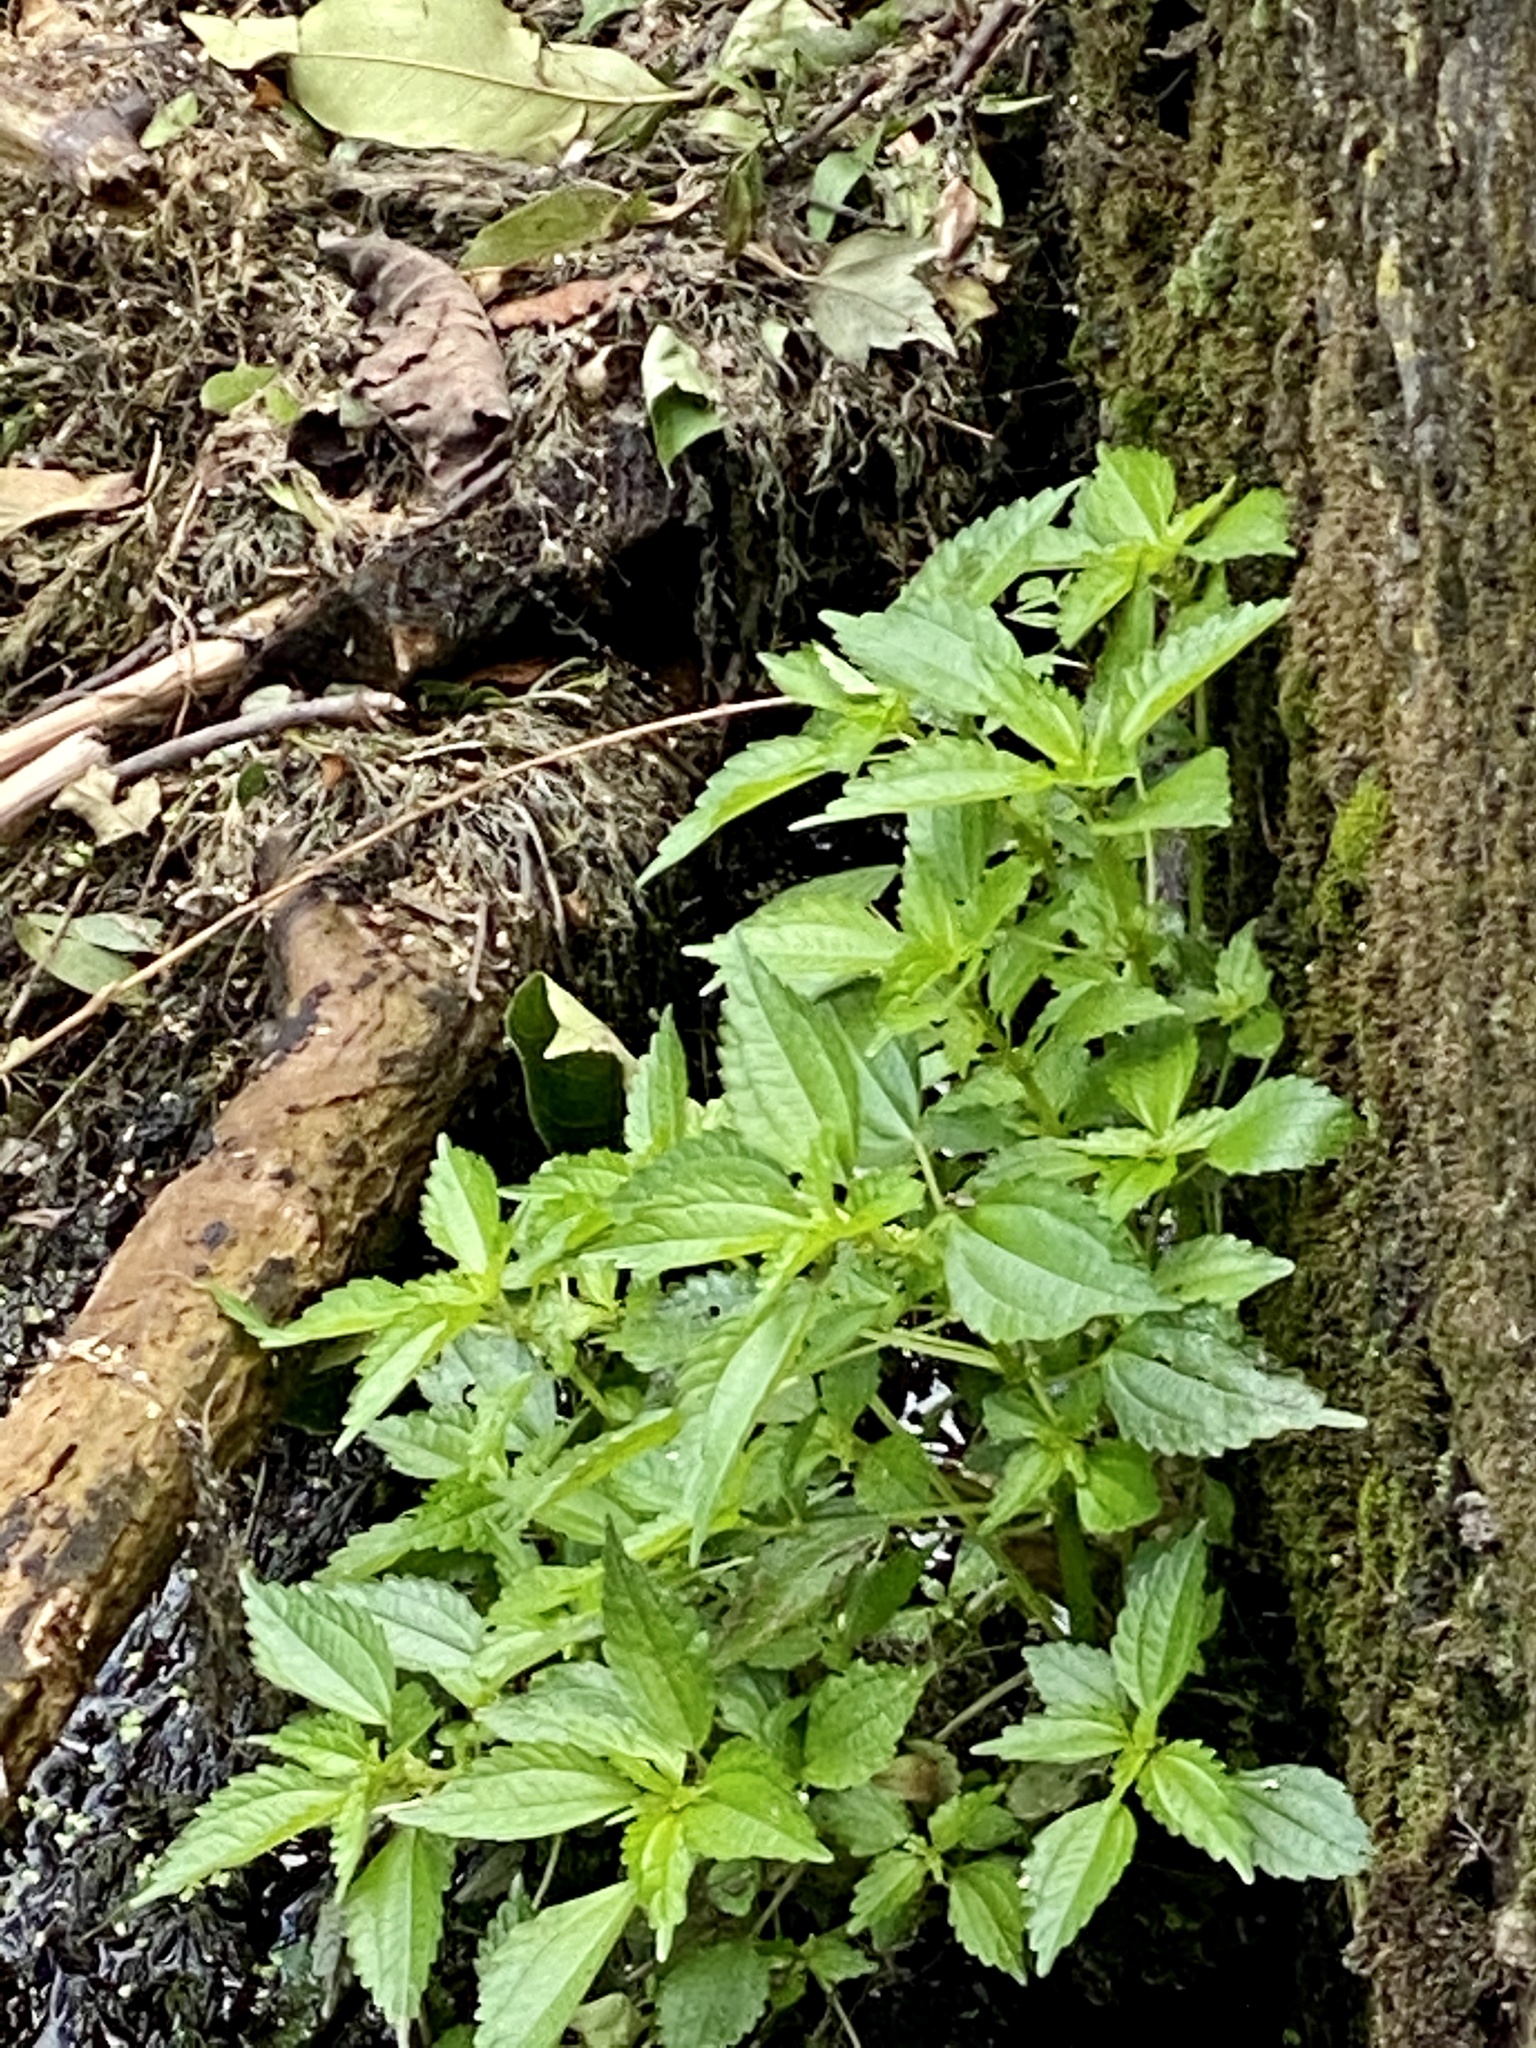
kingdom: Plantae
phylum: Tracheophyta
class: Magnoliopsida
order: Rosales
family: Urticaceae
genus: Pilea
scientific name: Pilea pumila
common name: Clearweed
